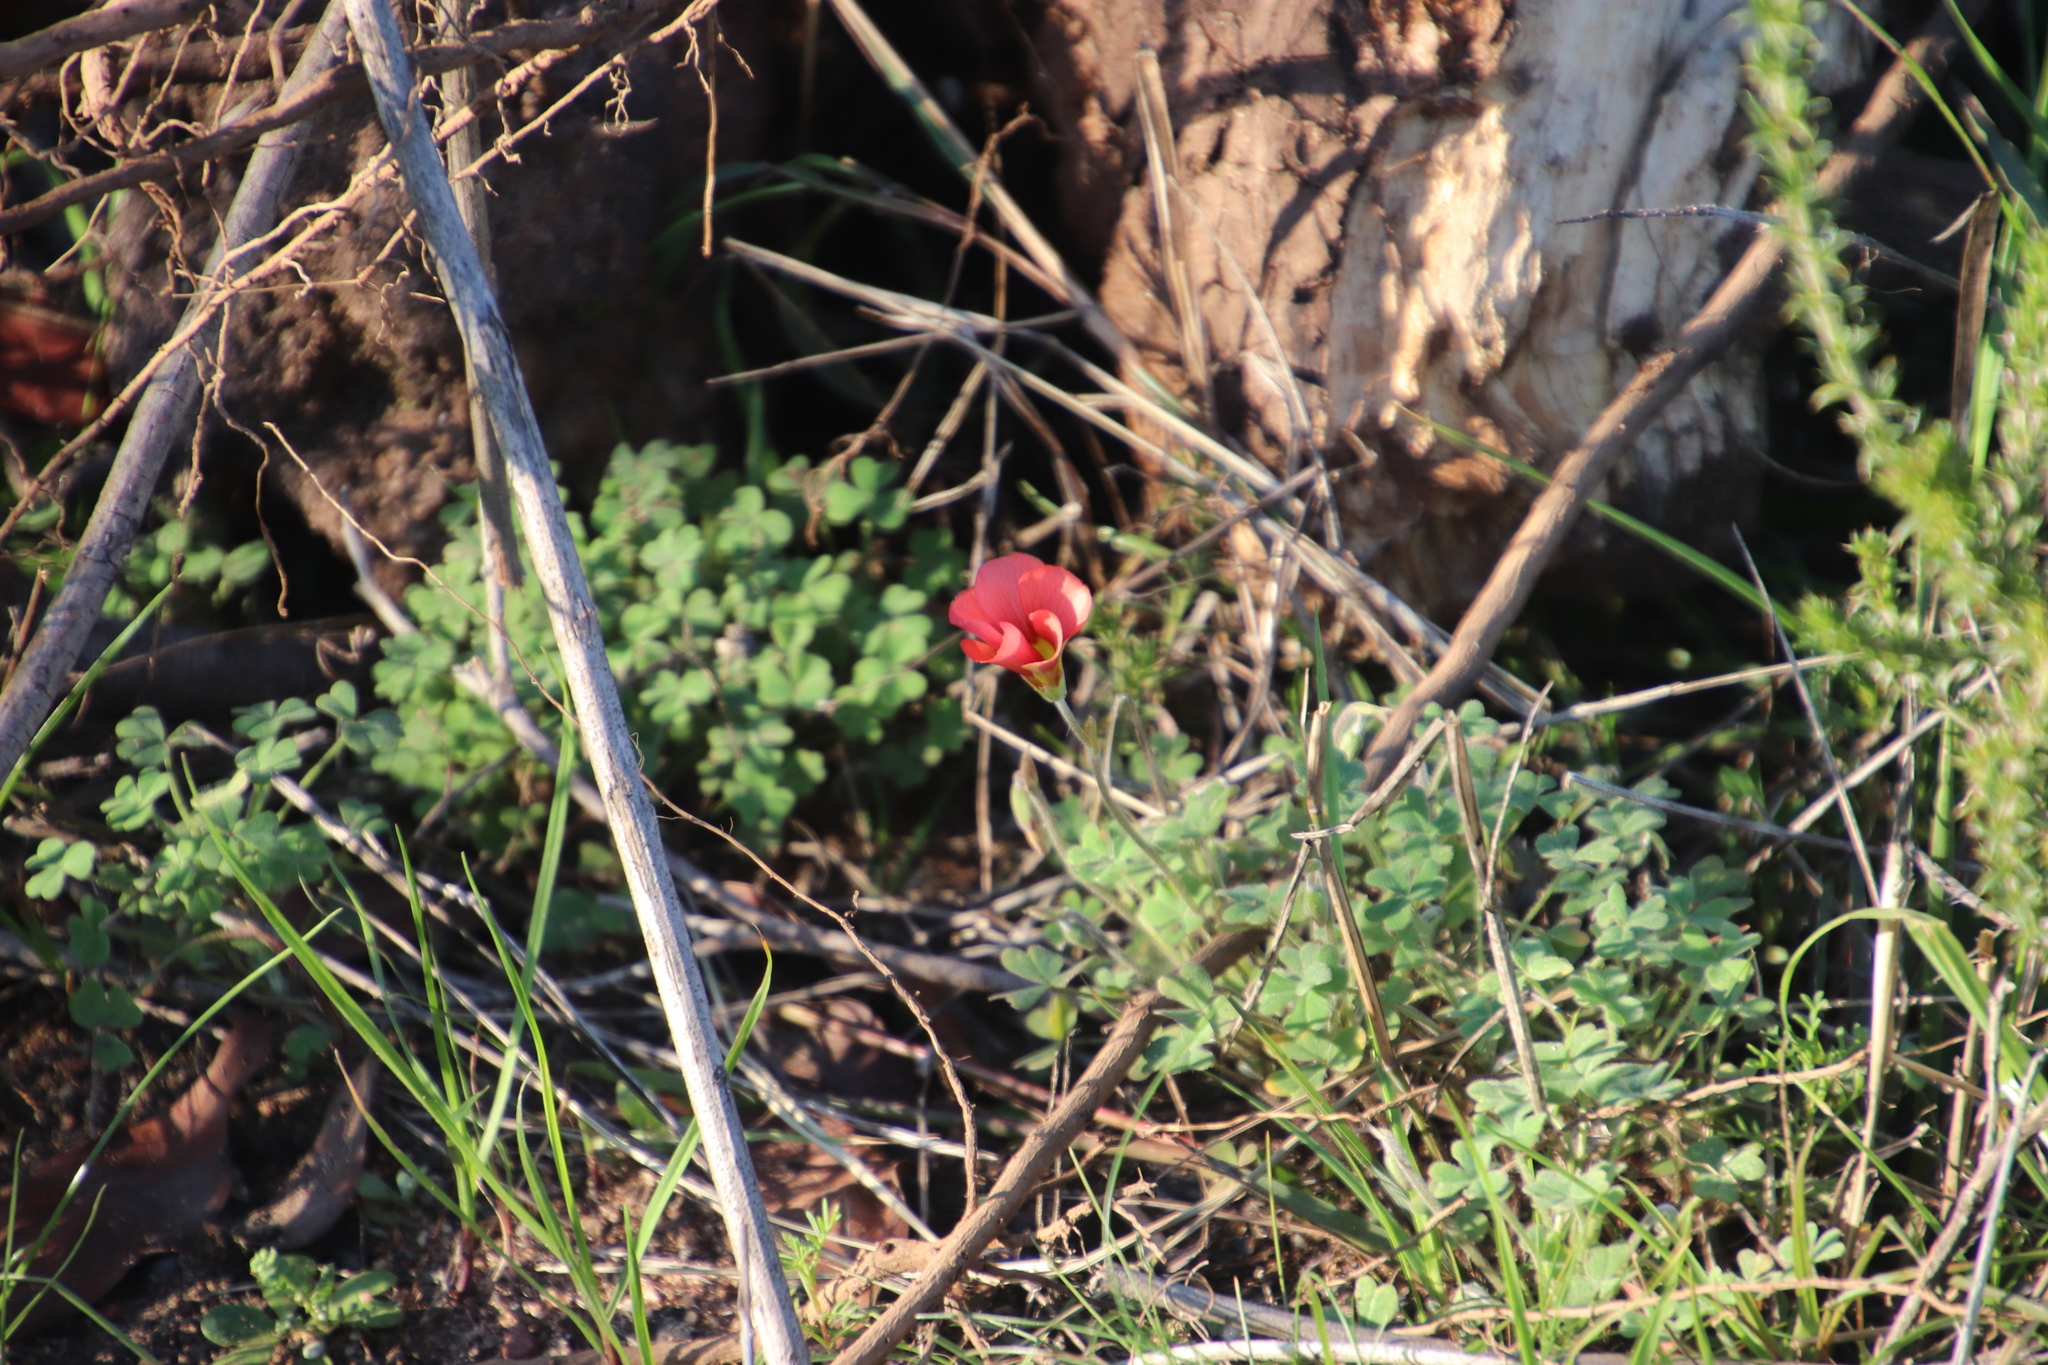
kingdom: Plantae
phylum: Tracheophyta
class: Magnoliopsida
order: Oxalidales
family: Oxalidaceae
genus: Oxalis
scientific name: Oxalis obtusa
